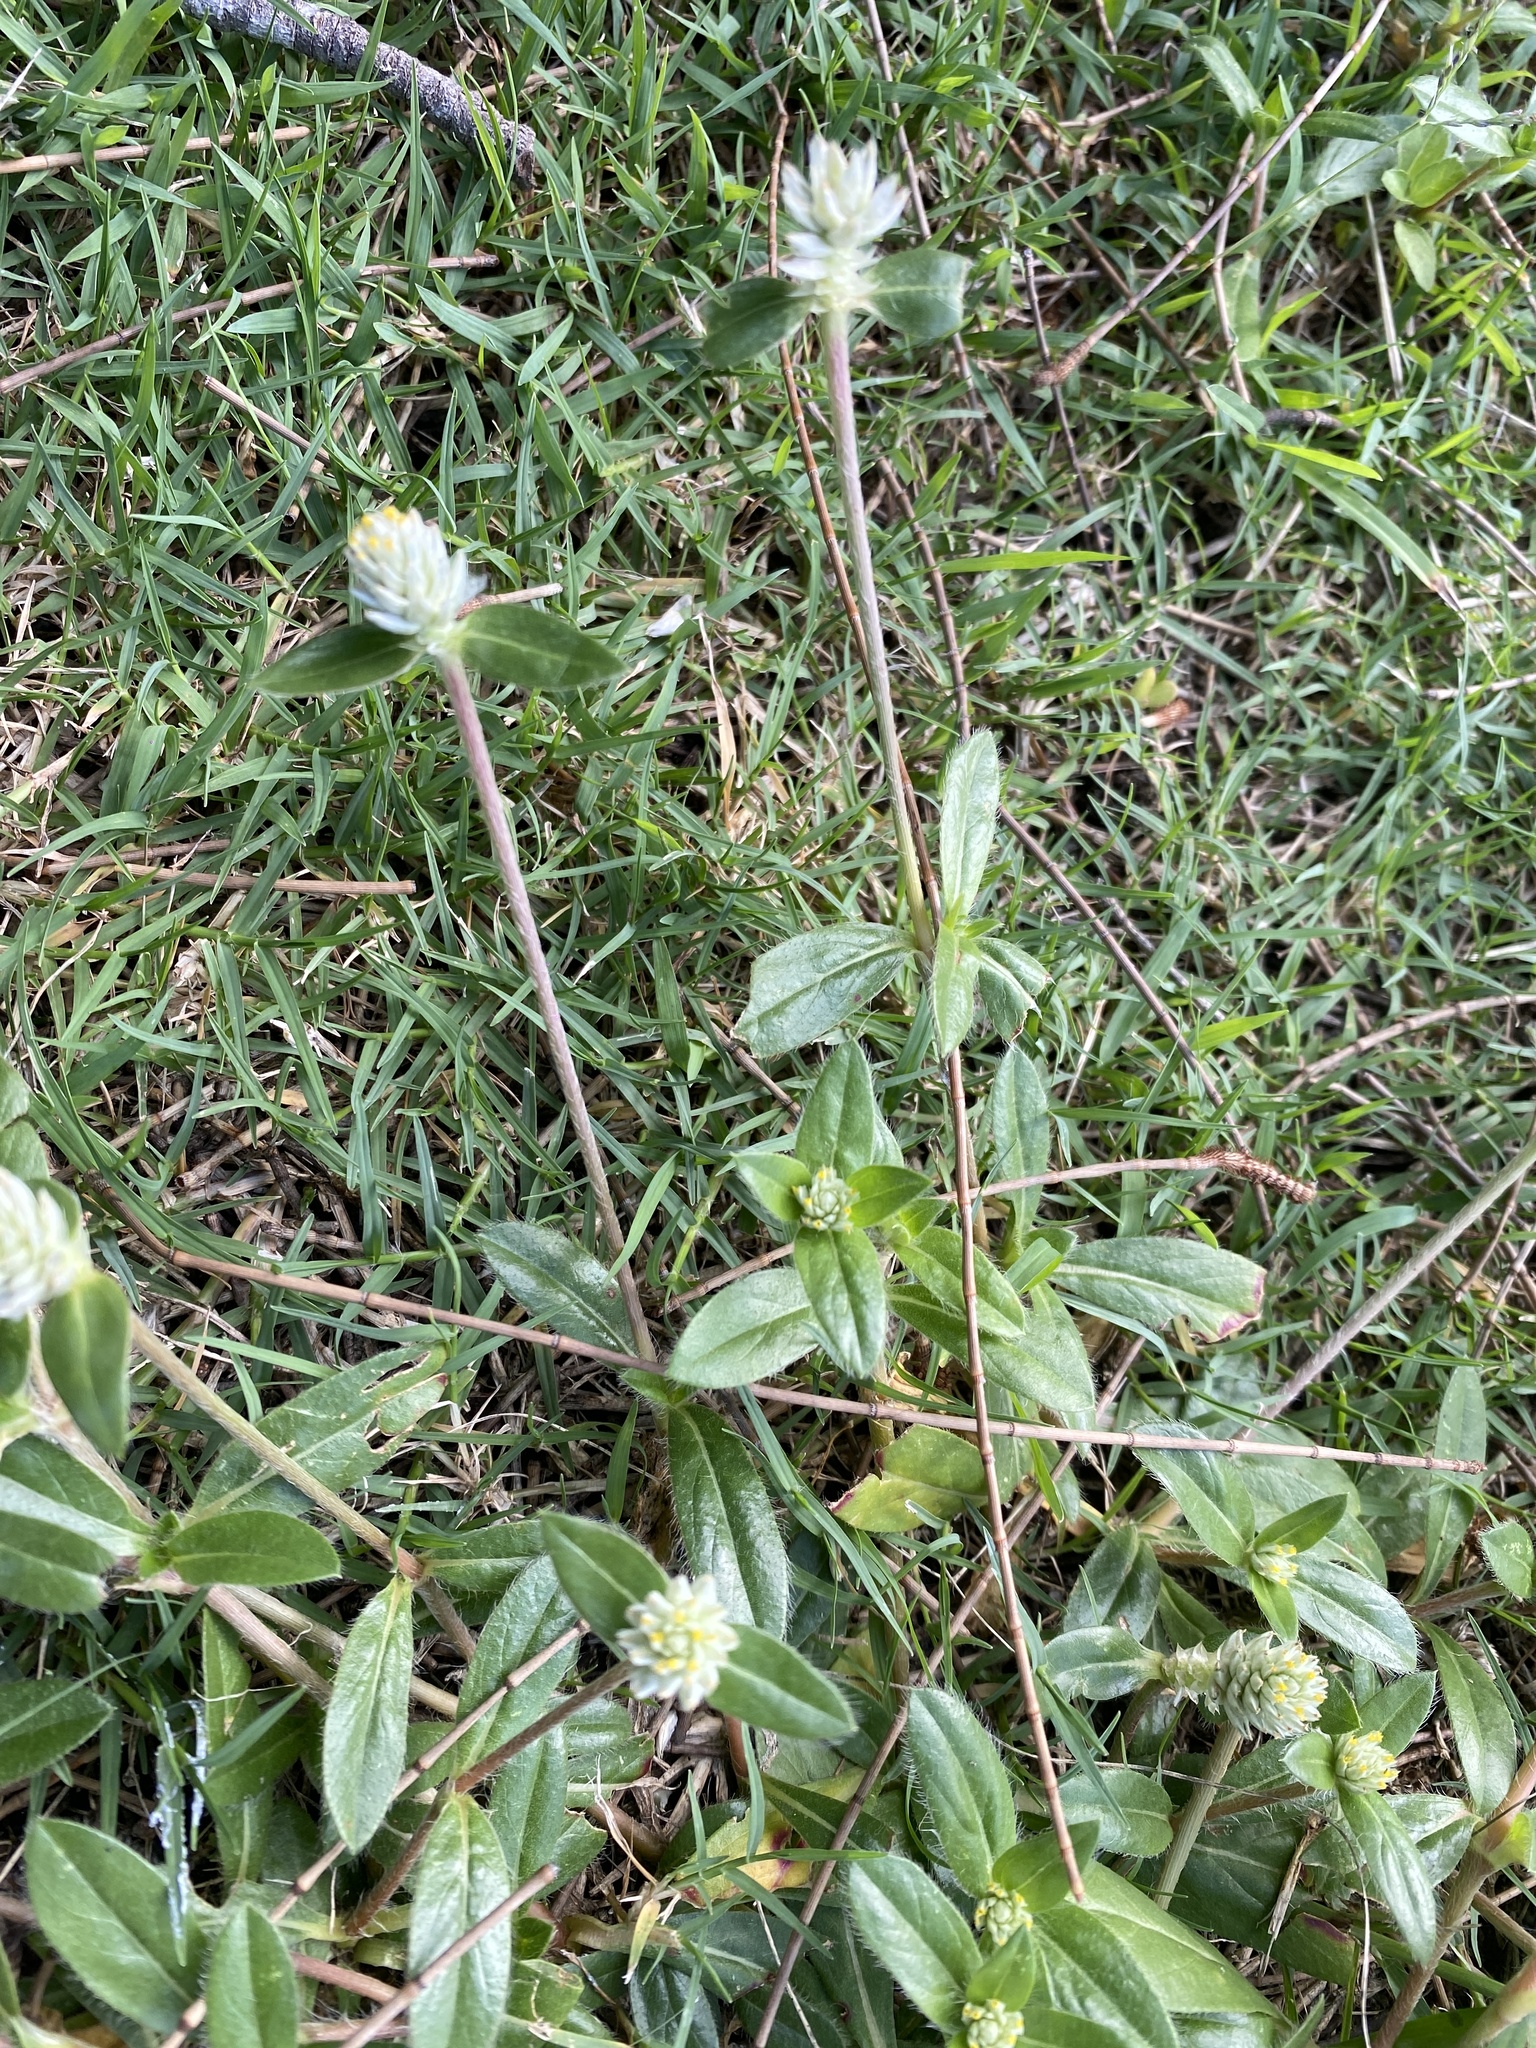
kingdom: Plantae
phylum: Tracheophyta
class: Magnoliopsida
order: Caryophyllales
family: Amaranthaceae
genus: Gomphrena
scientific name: Gomphrena celosioides
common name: Gomphrena-weed
